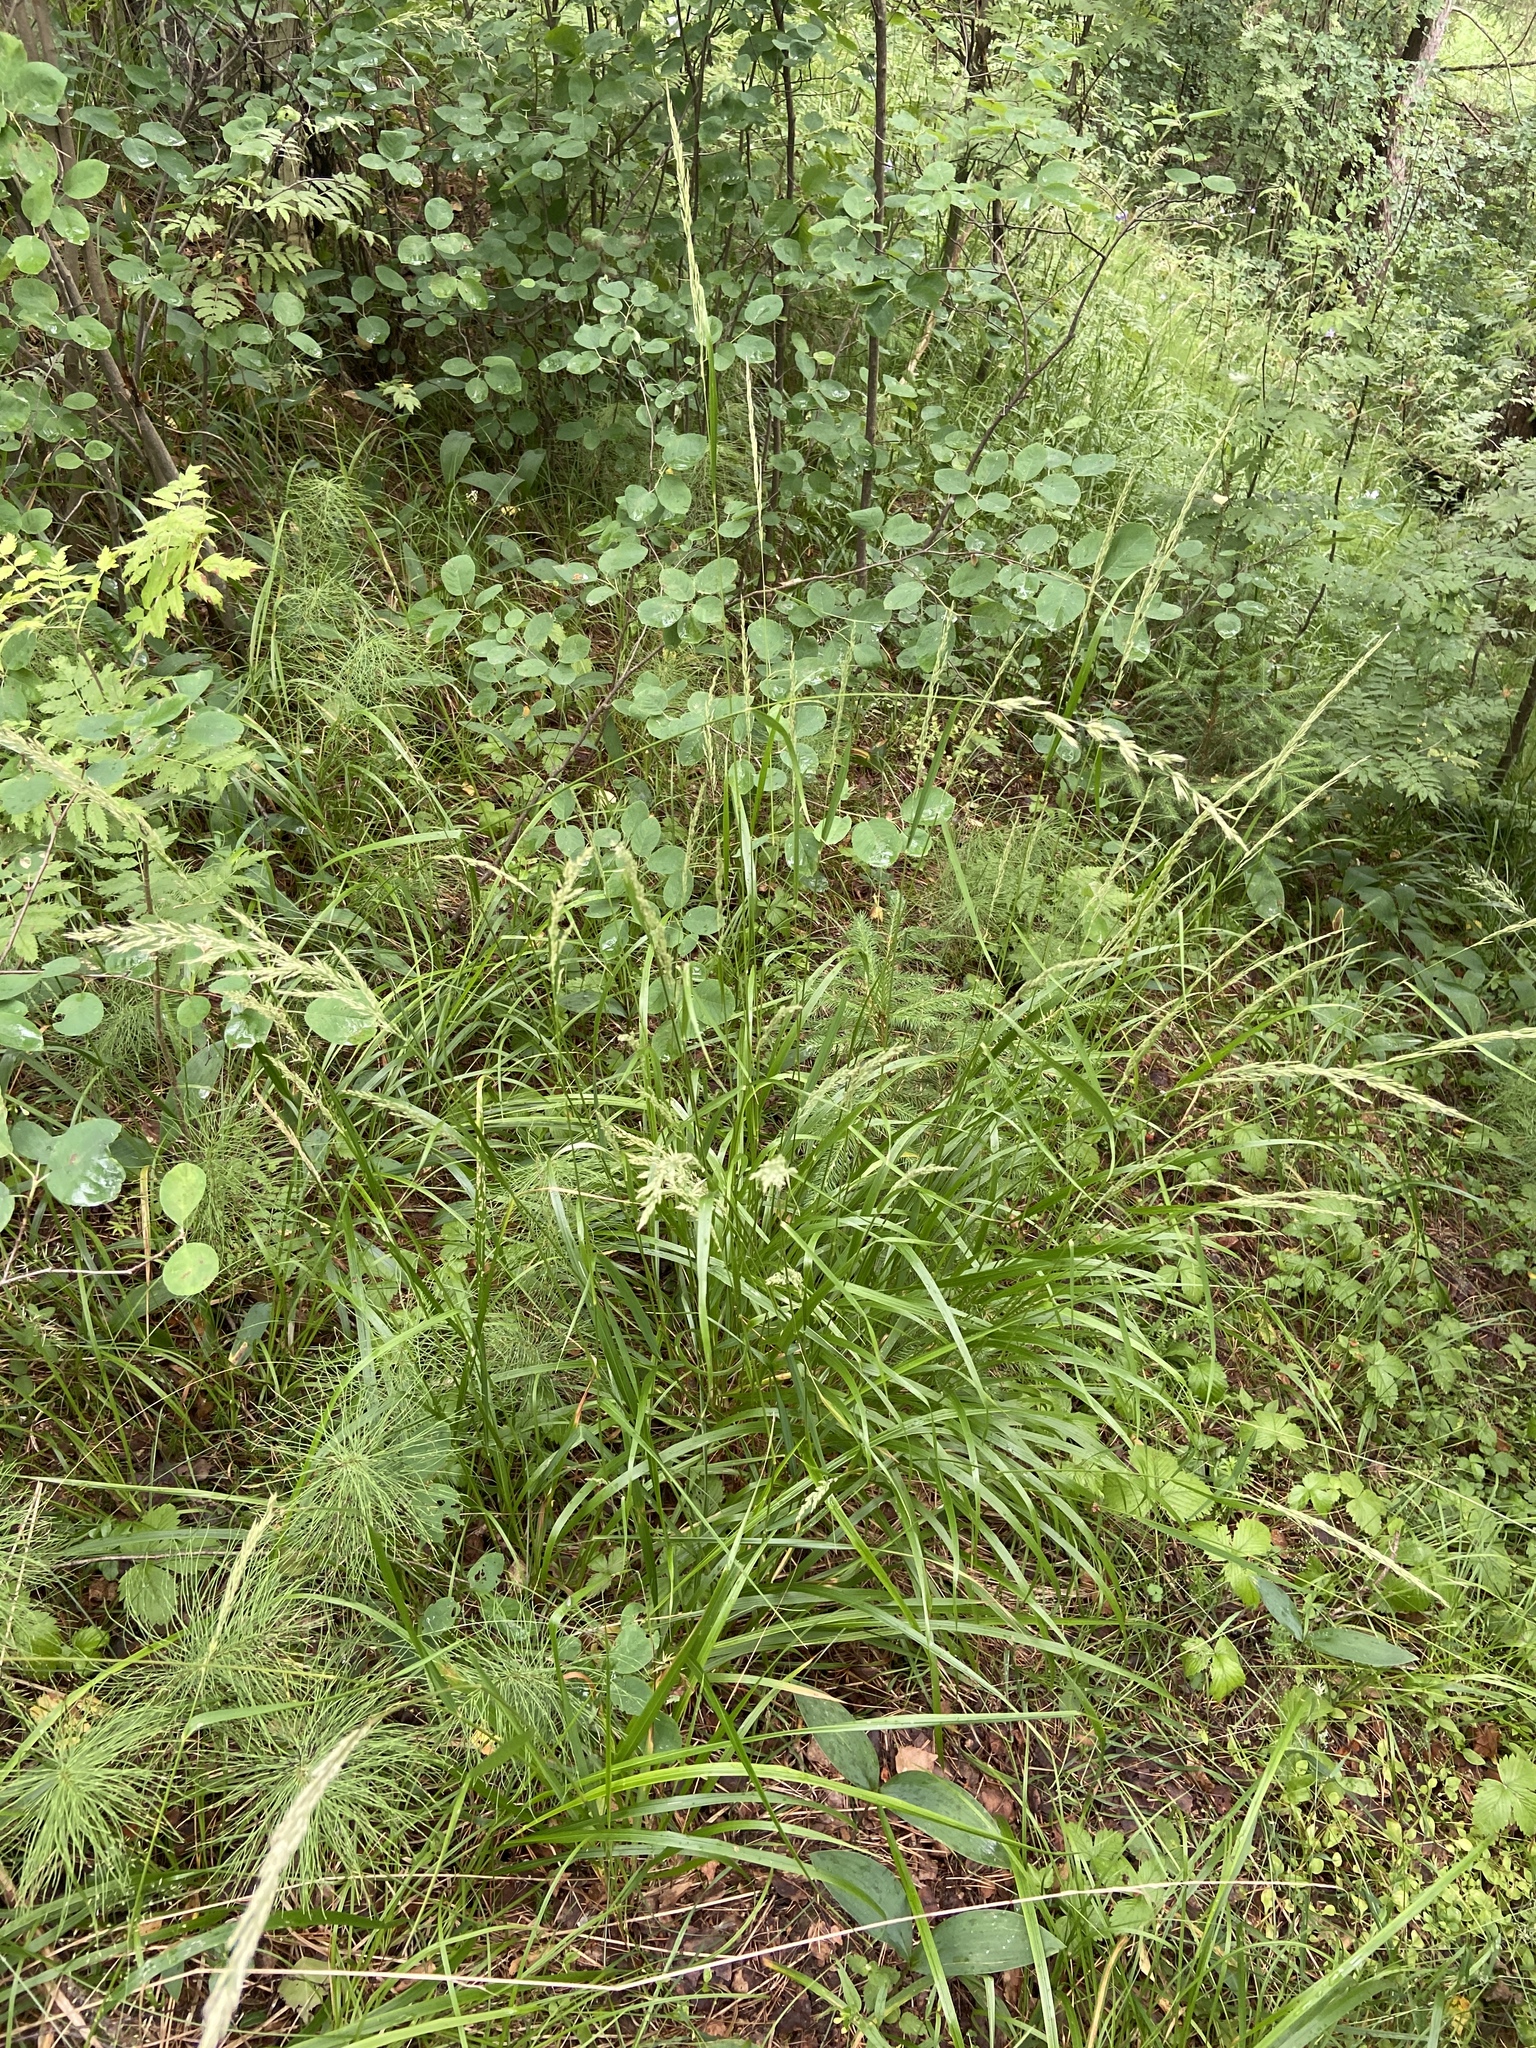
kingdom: Plantae
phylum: Tracheophyta
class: Liliopsida
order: Poales
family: Poaceae
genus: Calamagrostis
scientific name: Calamagrostis arundinacea
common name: Metskastik
